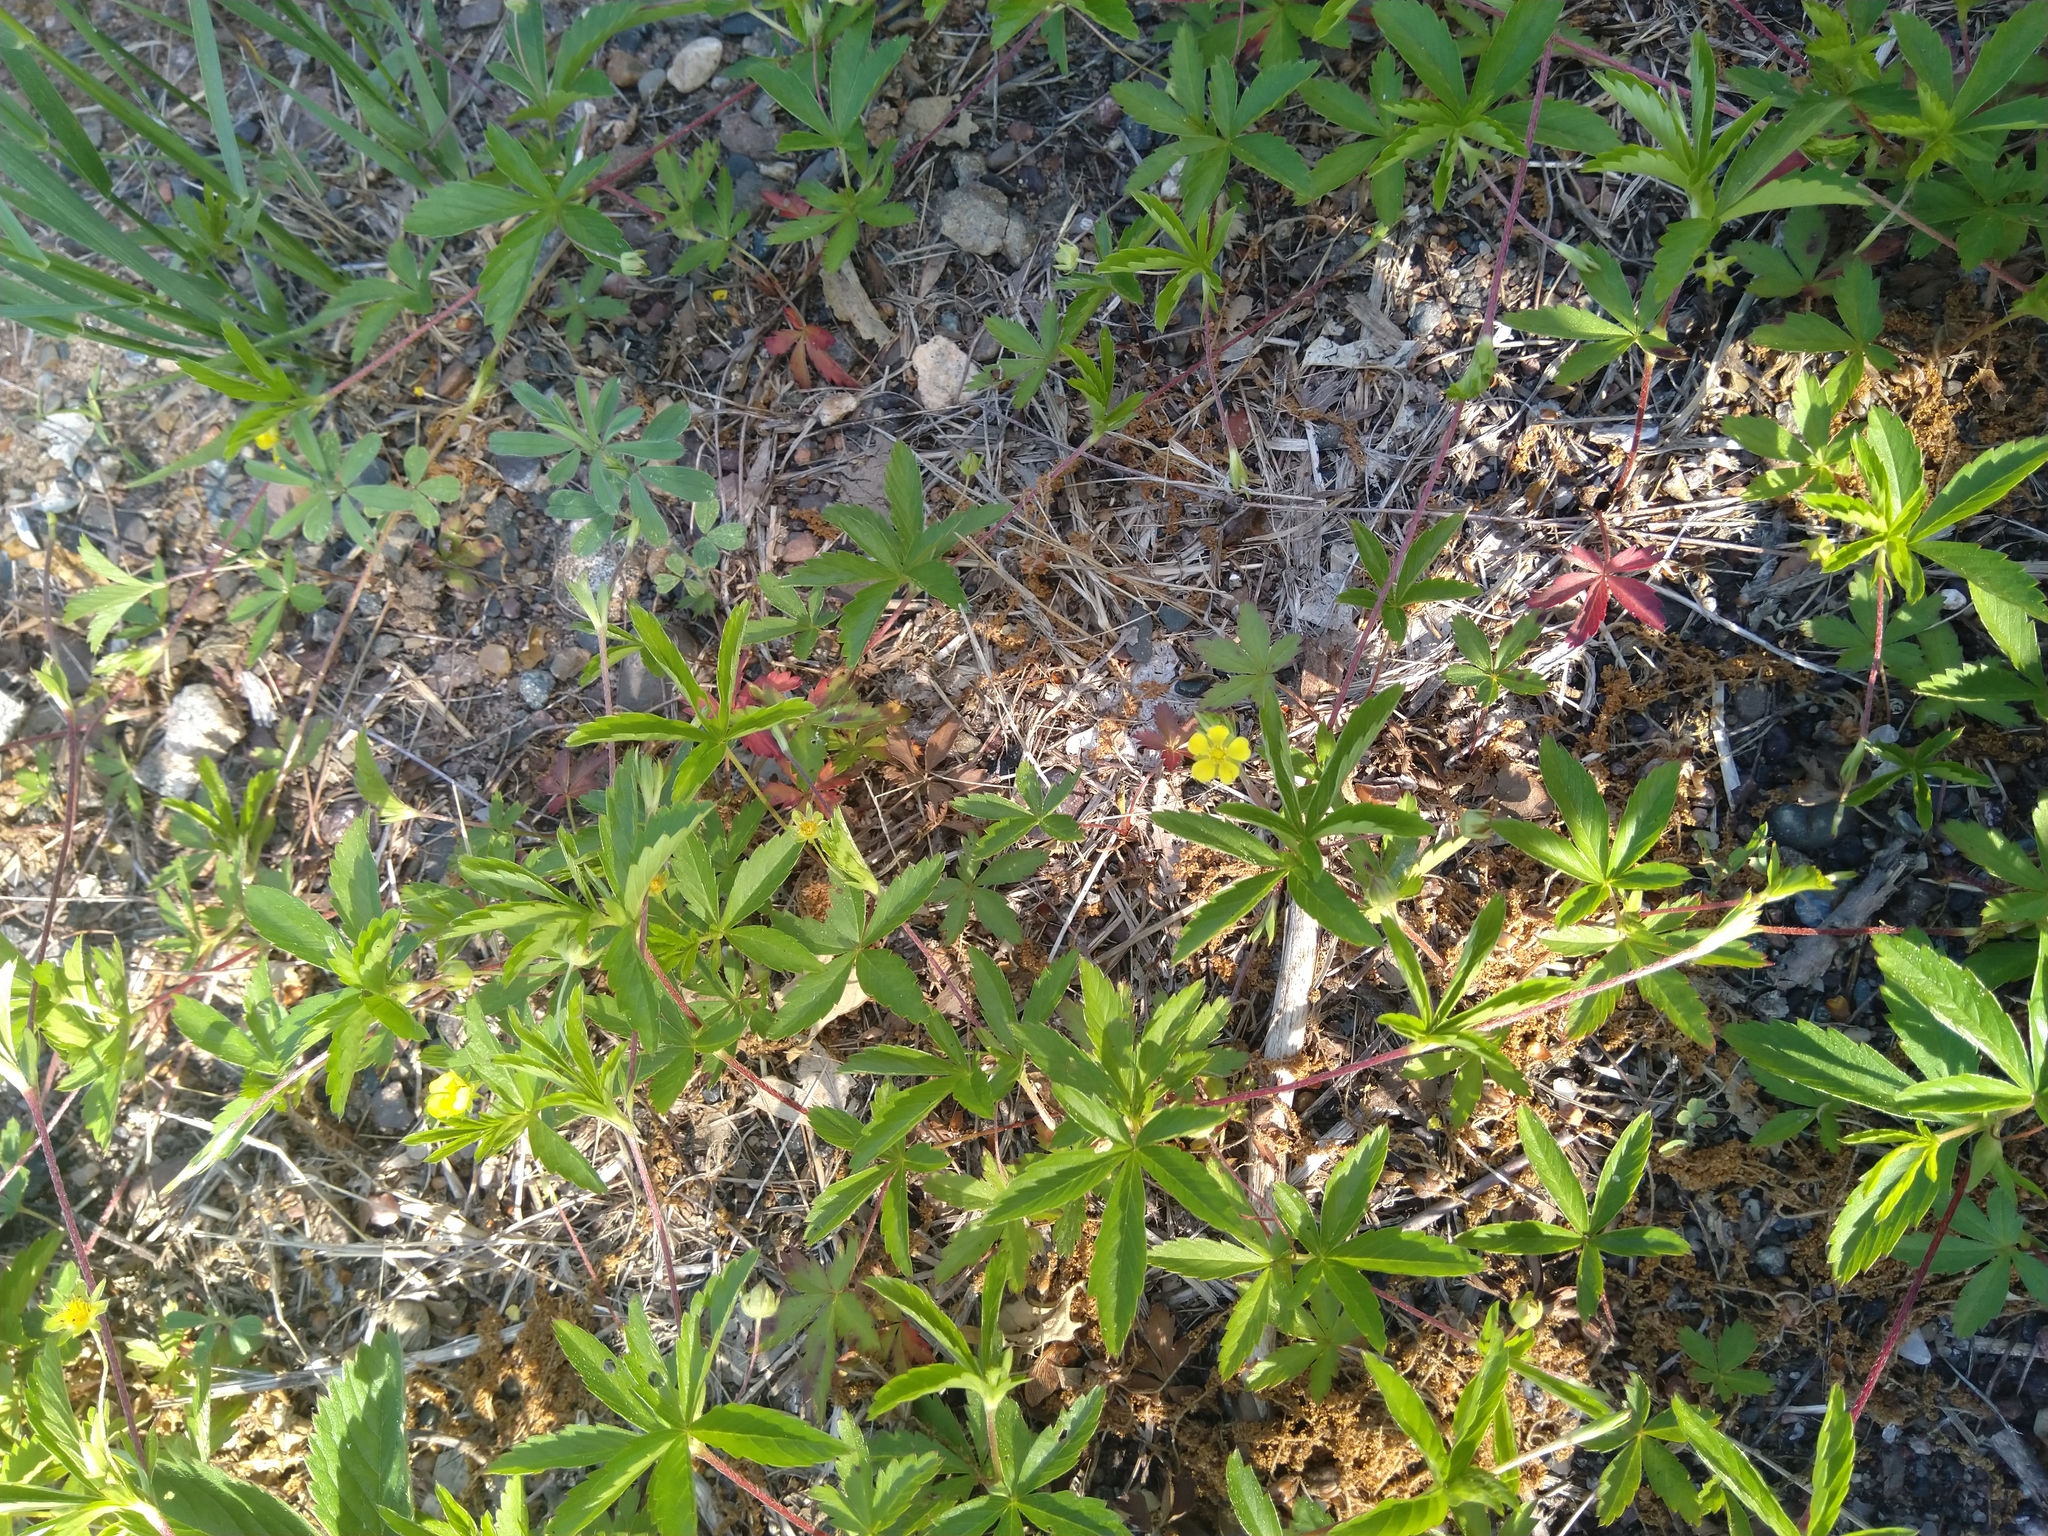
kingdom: Plantae
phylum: Tracheophyta
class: Magnoliopsida
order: Rosales
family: Rosaceae
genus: Potentilla
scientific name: Potentilla simplex
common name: Old field cinquefoil
